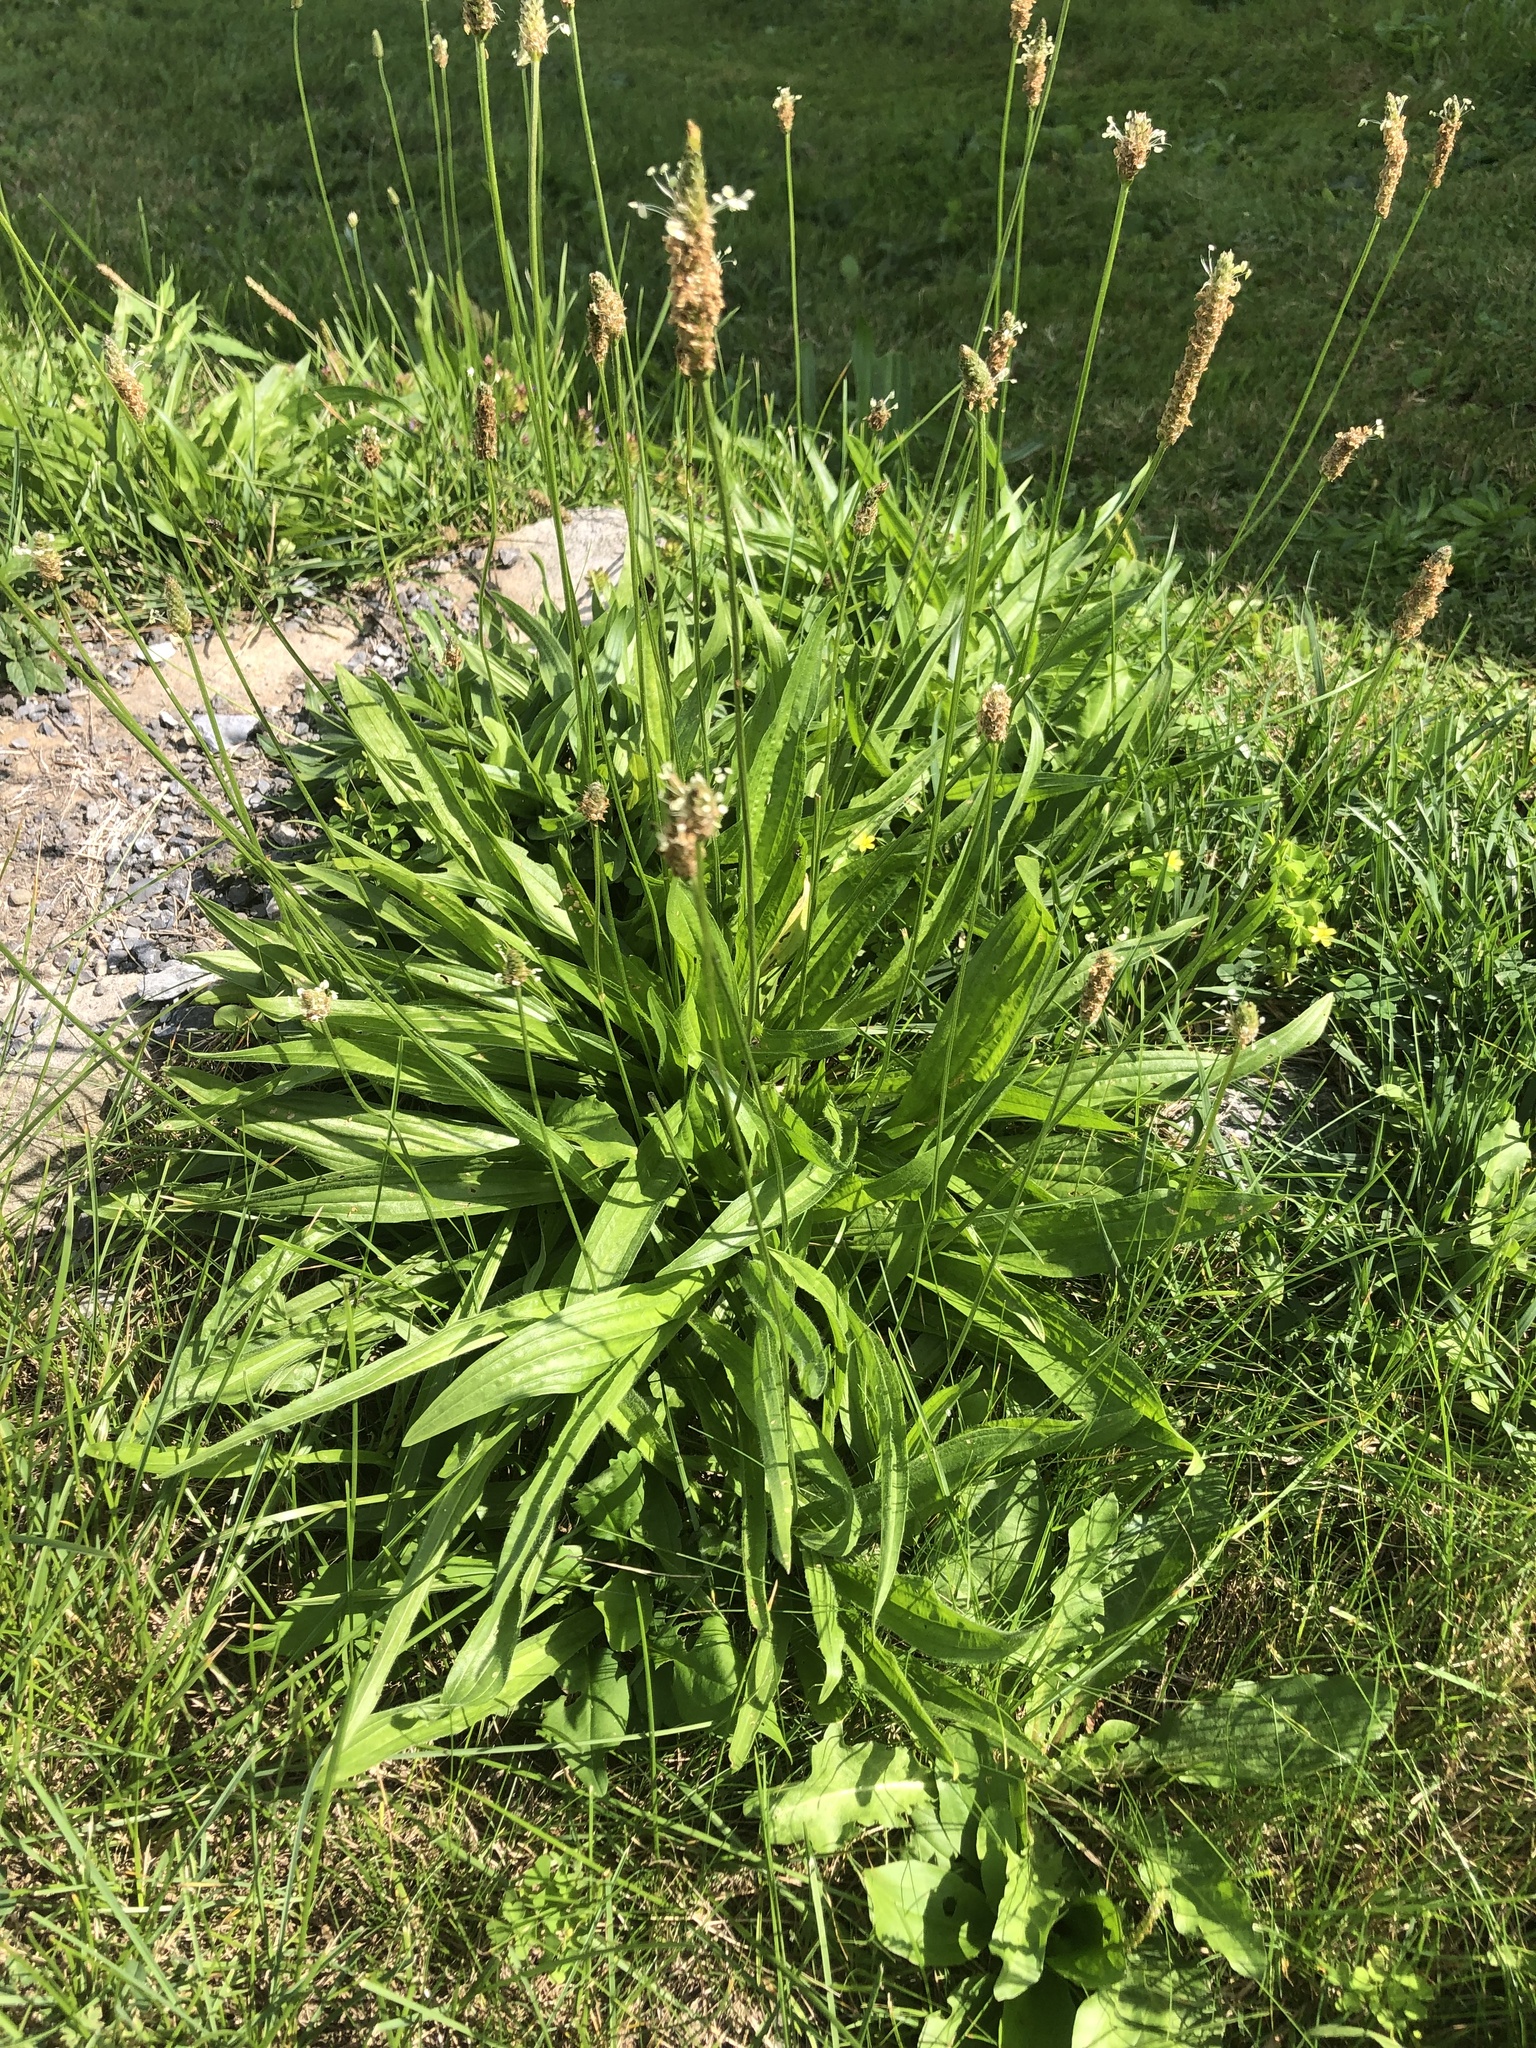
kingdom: Plantae
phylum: Tracheophyta
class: Magnoliopsida
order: Lamiales
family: Plantaginaceae
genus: Plantago
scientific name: Plantago lanceolata
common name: Ribwort plantain
